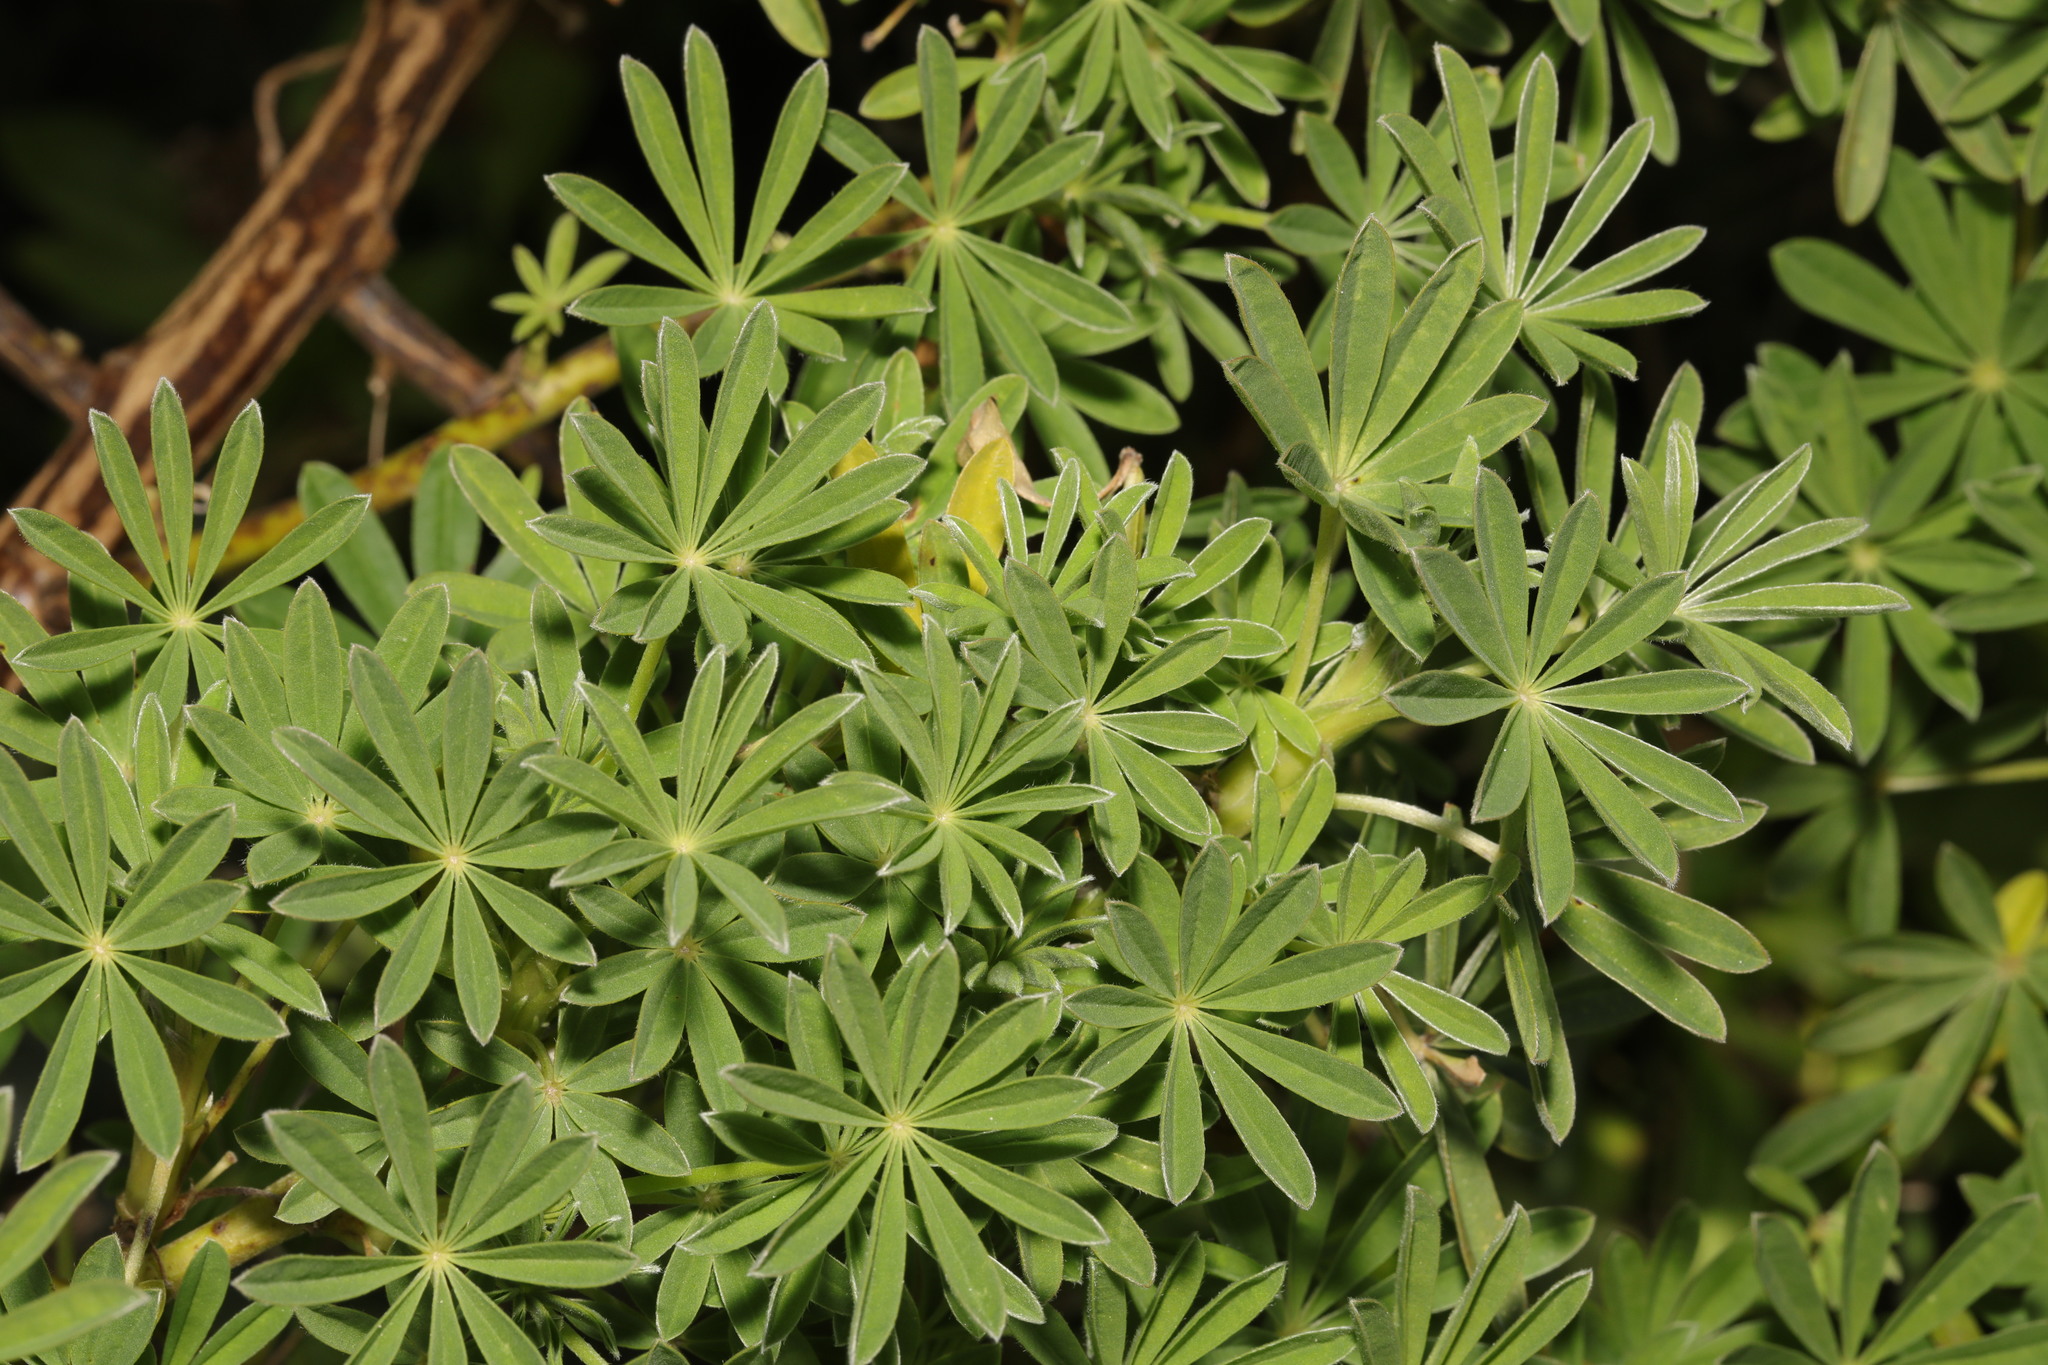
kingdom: Plantae
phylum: Tracheophyta
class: Magnoliopsida
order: Fabales
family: Fabaceae
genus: Lupinus
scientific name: Lupinus arboreus
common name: Yellow bush lupine
